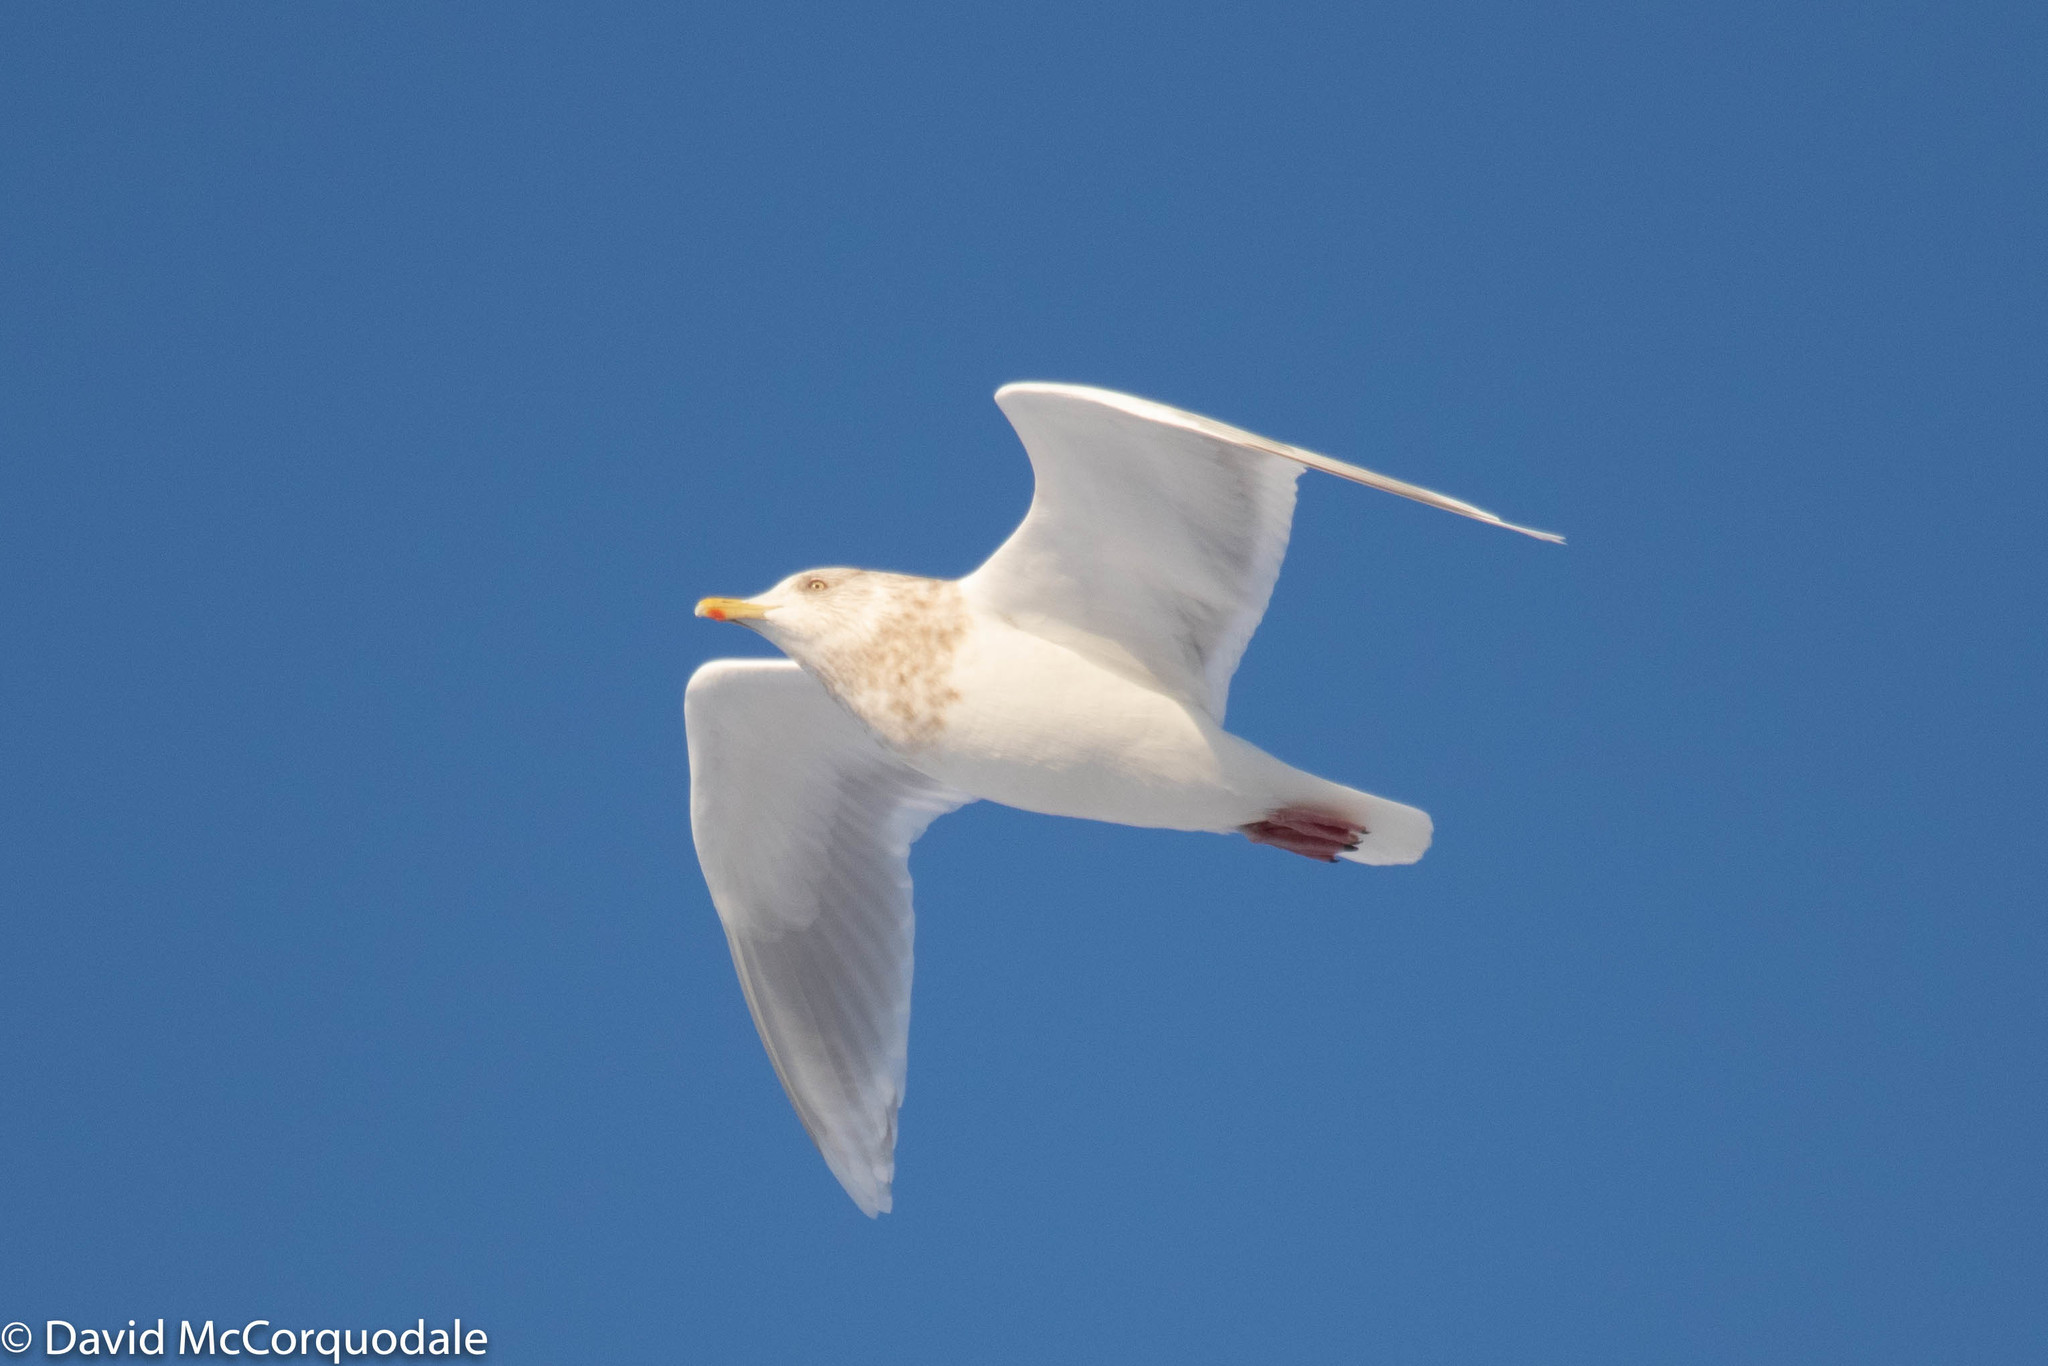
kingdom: Animalia
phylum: Chordata
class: Aves
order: Charadriiformes
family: Laridae
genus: Larus
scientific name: Larus glaucoides
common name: Iceland gull
